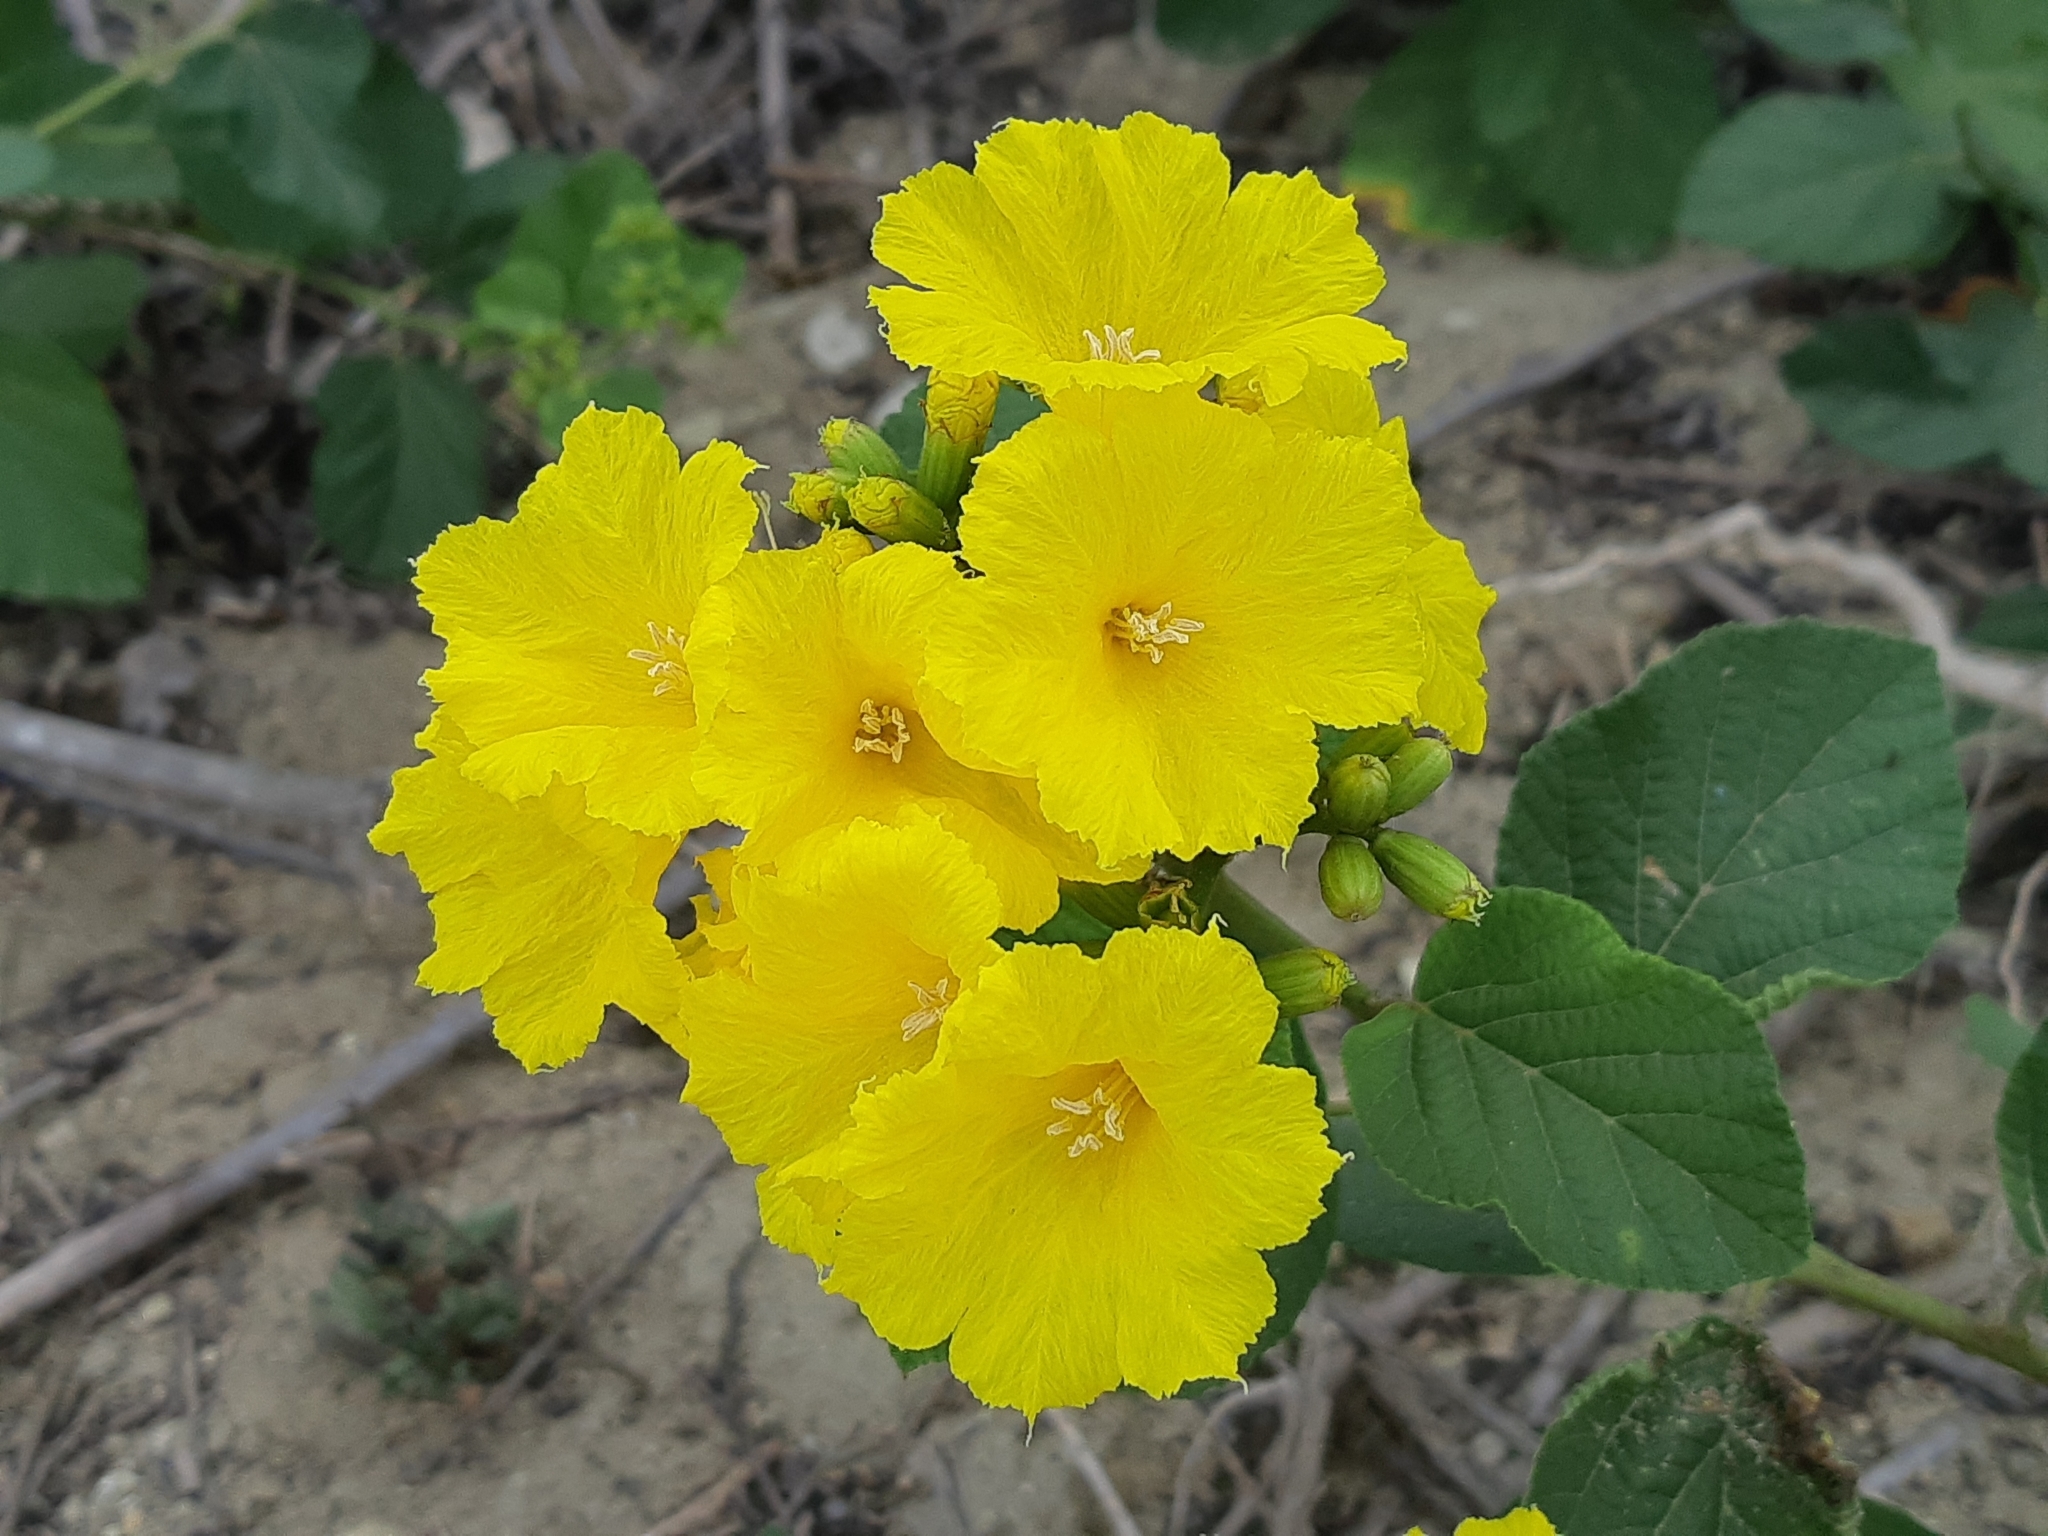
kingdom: Plantae
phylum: Tracheophyta
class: Magnoliopsida
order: Boraginales
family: Cordiaceae
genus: Cordia
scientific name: Cordia lutea
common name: Yellow geiger
